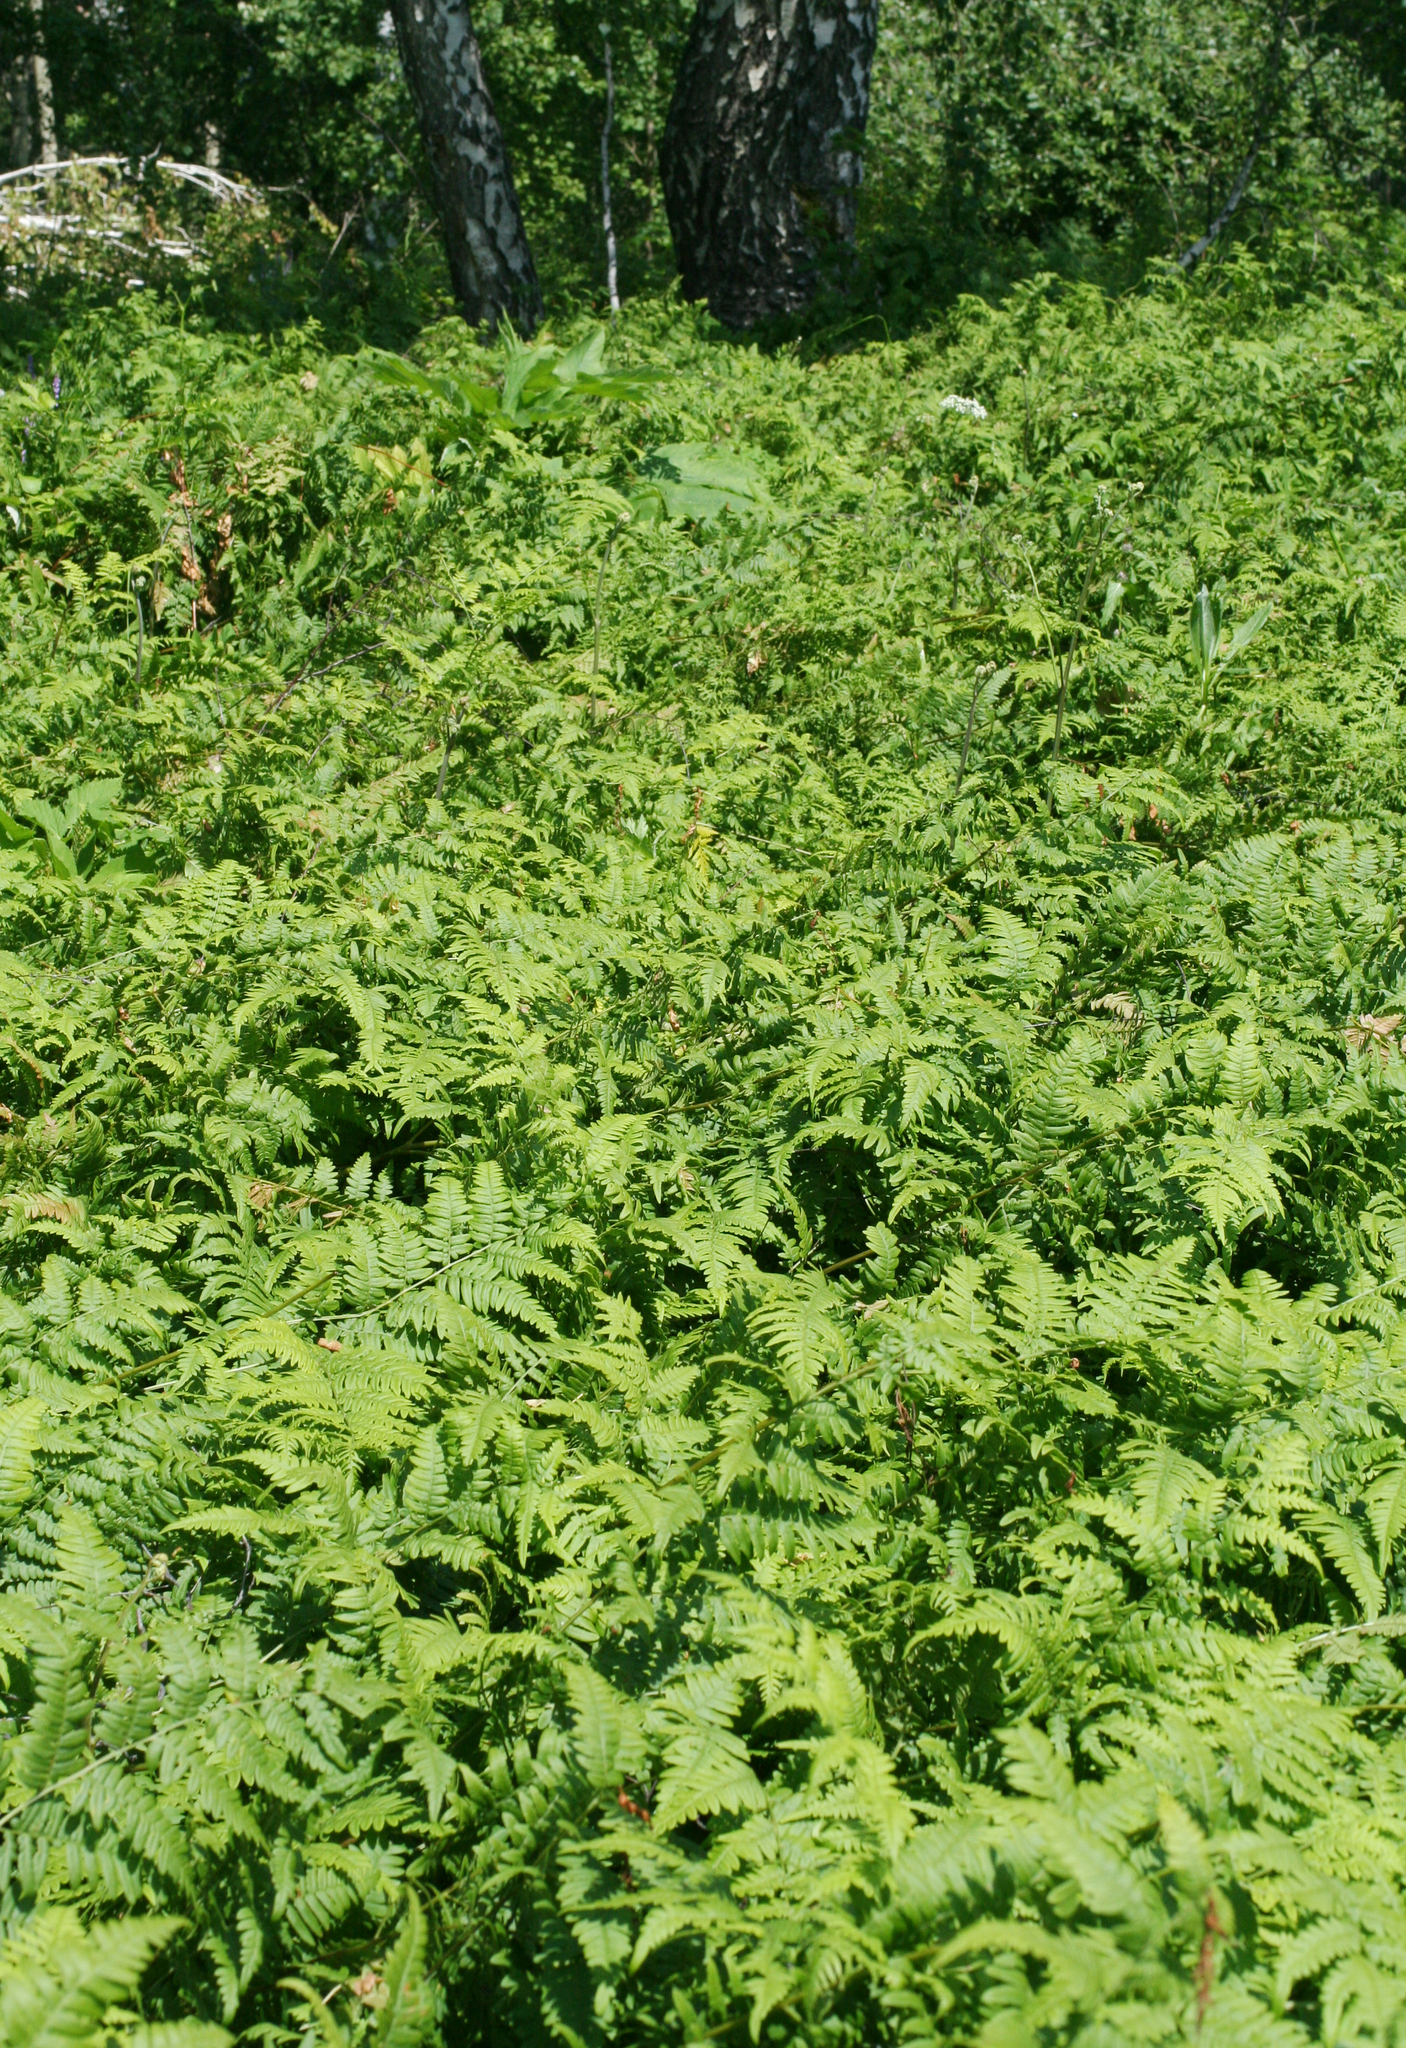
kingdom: Plantae
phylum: Tracheophyta
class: Polypodiopsida
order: Polypodiales
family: Dennstaedtiaceae
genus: Pteridium
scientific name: Pteridium aquilinum
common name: Bracken
